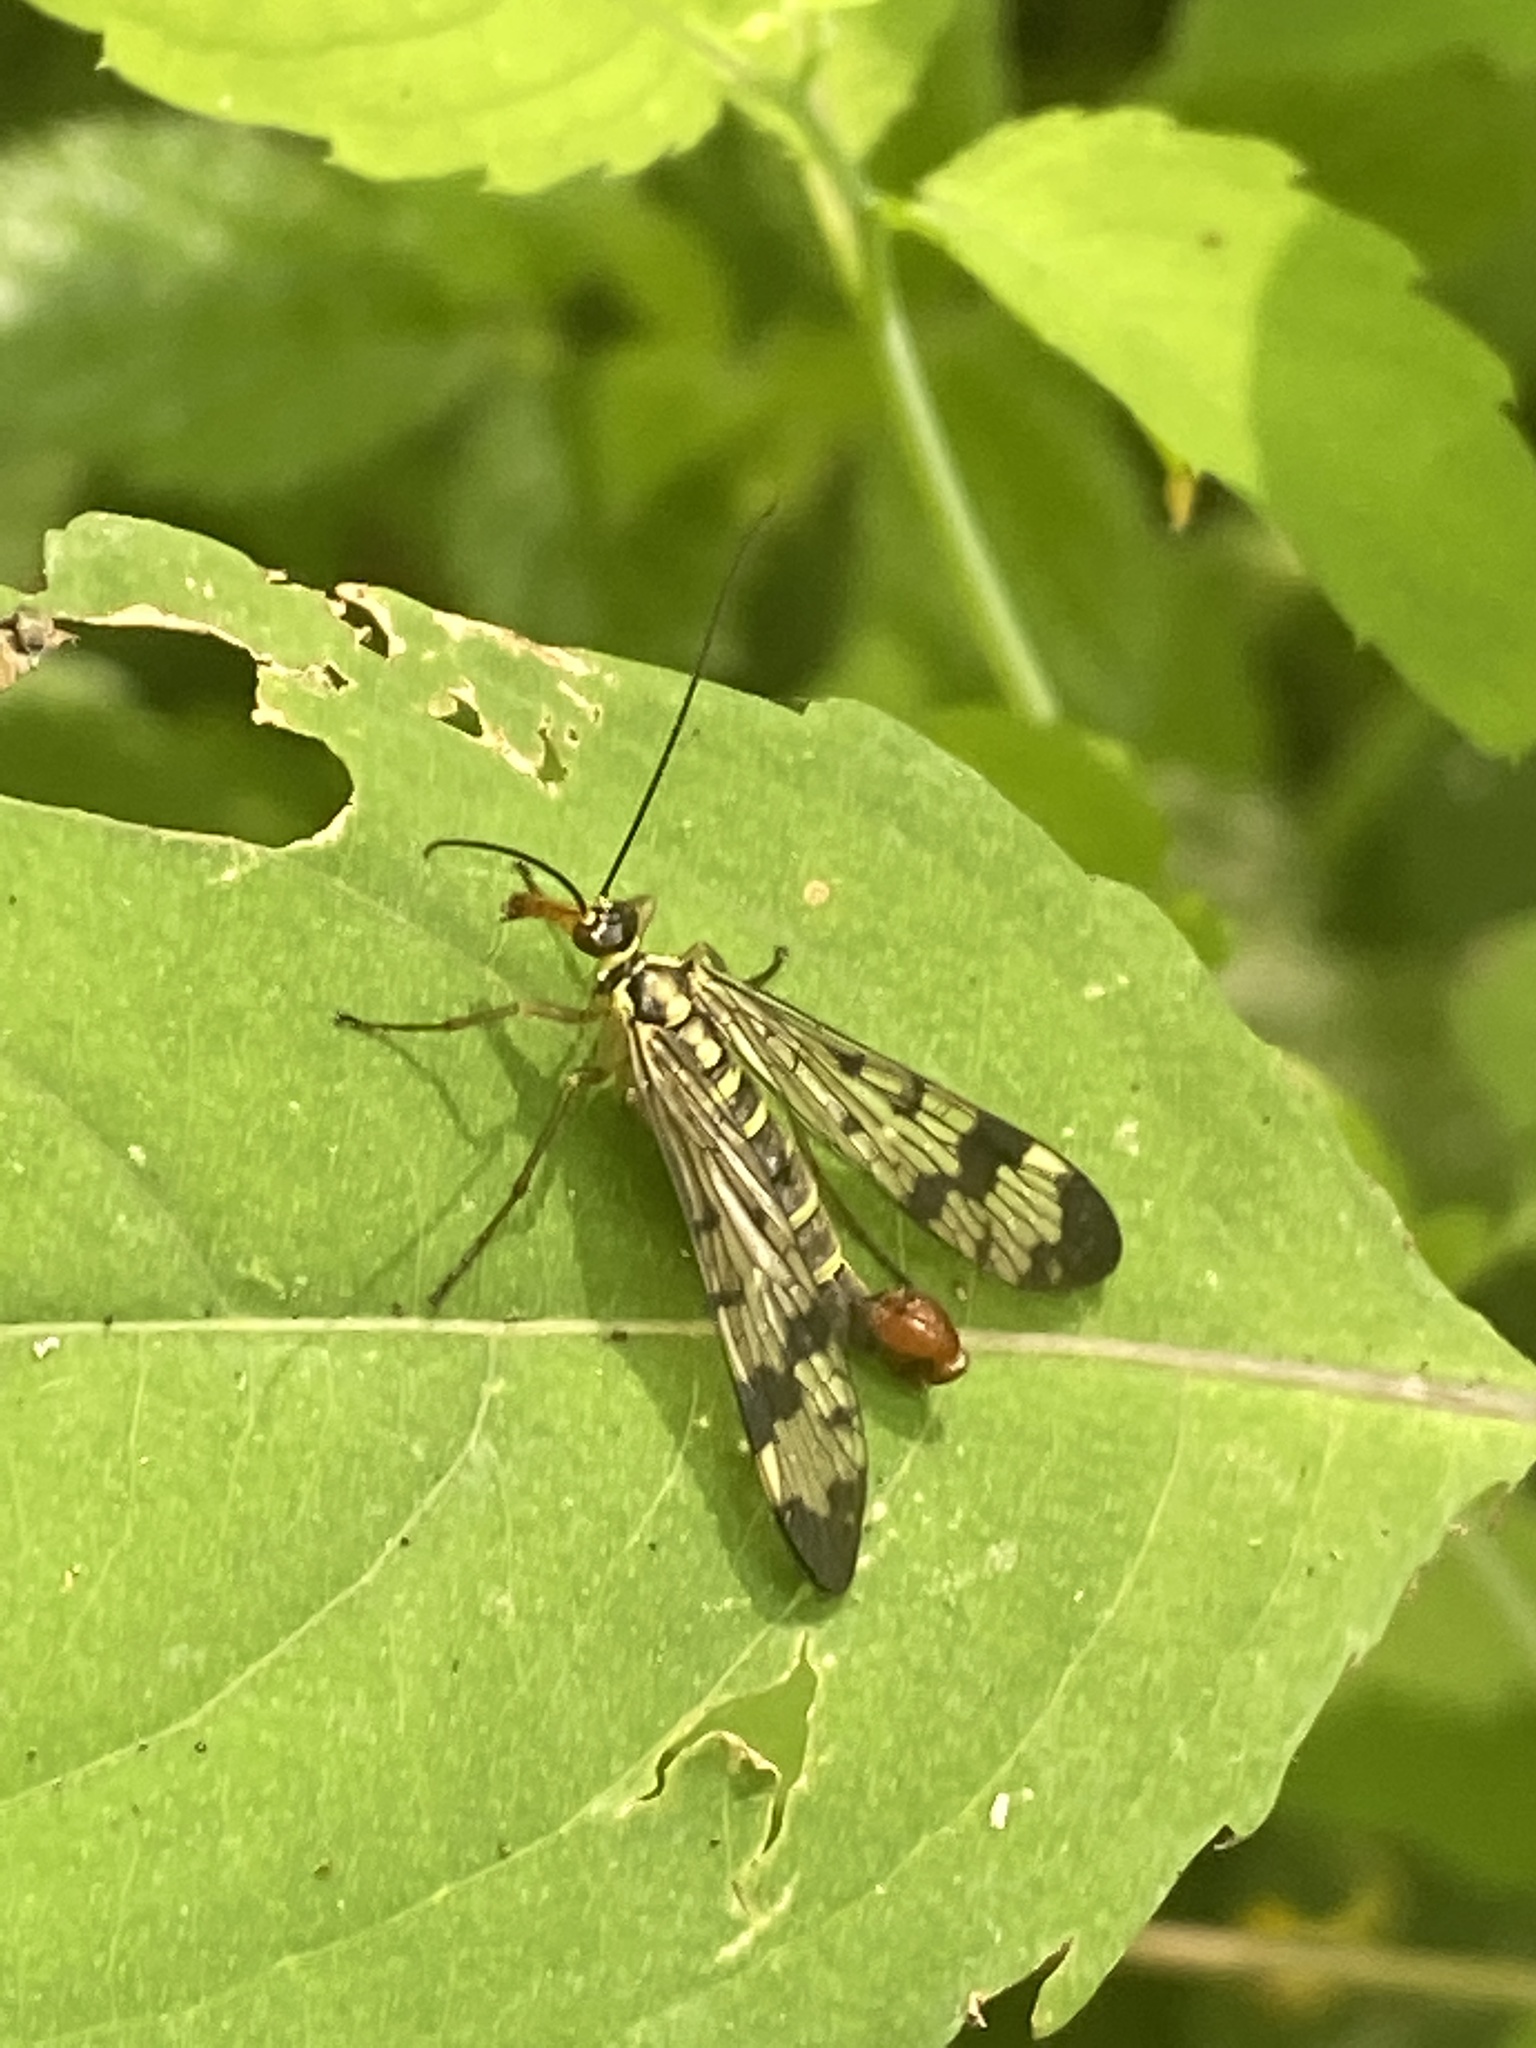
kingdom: Animalia
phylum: Arthropoda
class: Insecta
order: Mecoptera
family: Panorpidae
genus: Panorpa
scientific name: Panorpa communis
